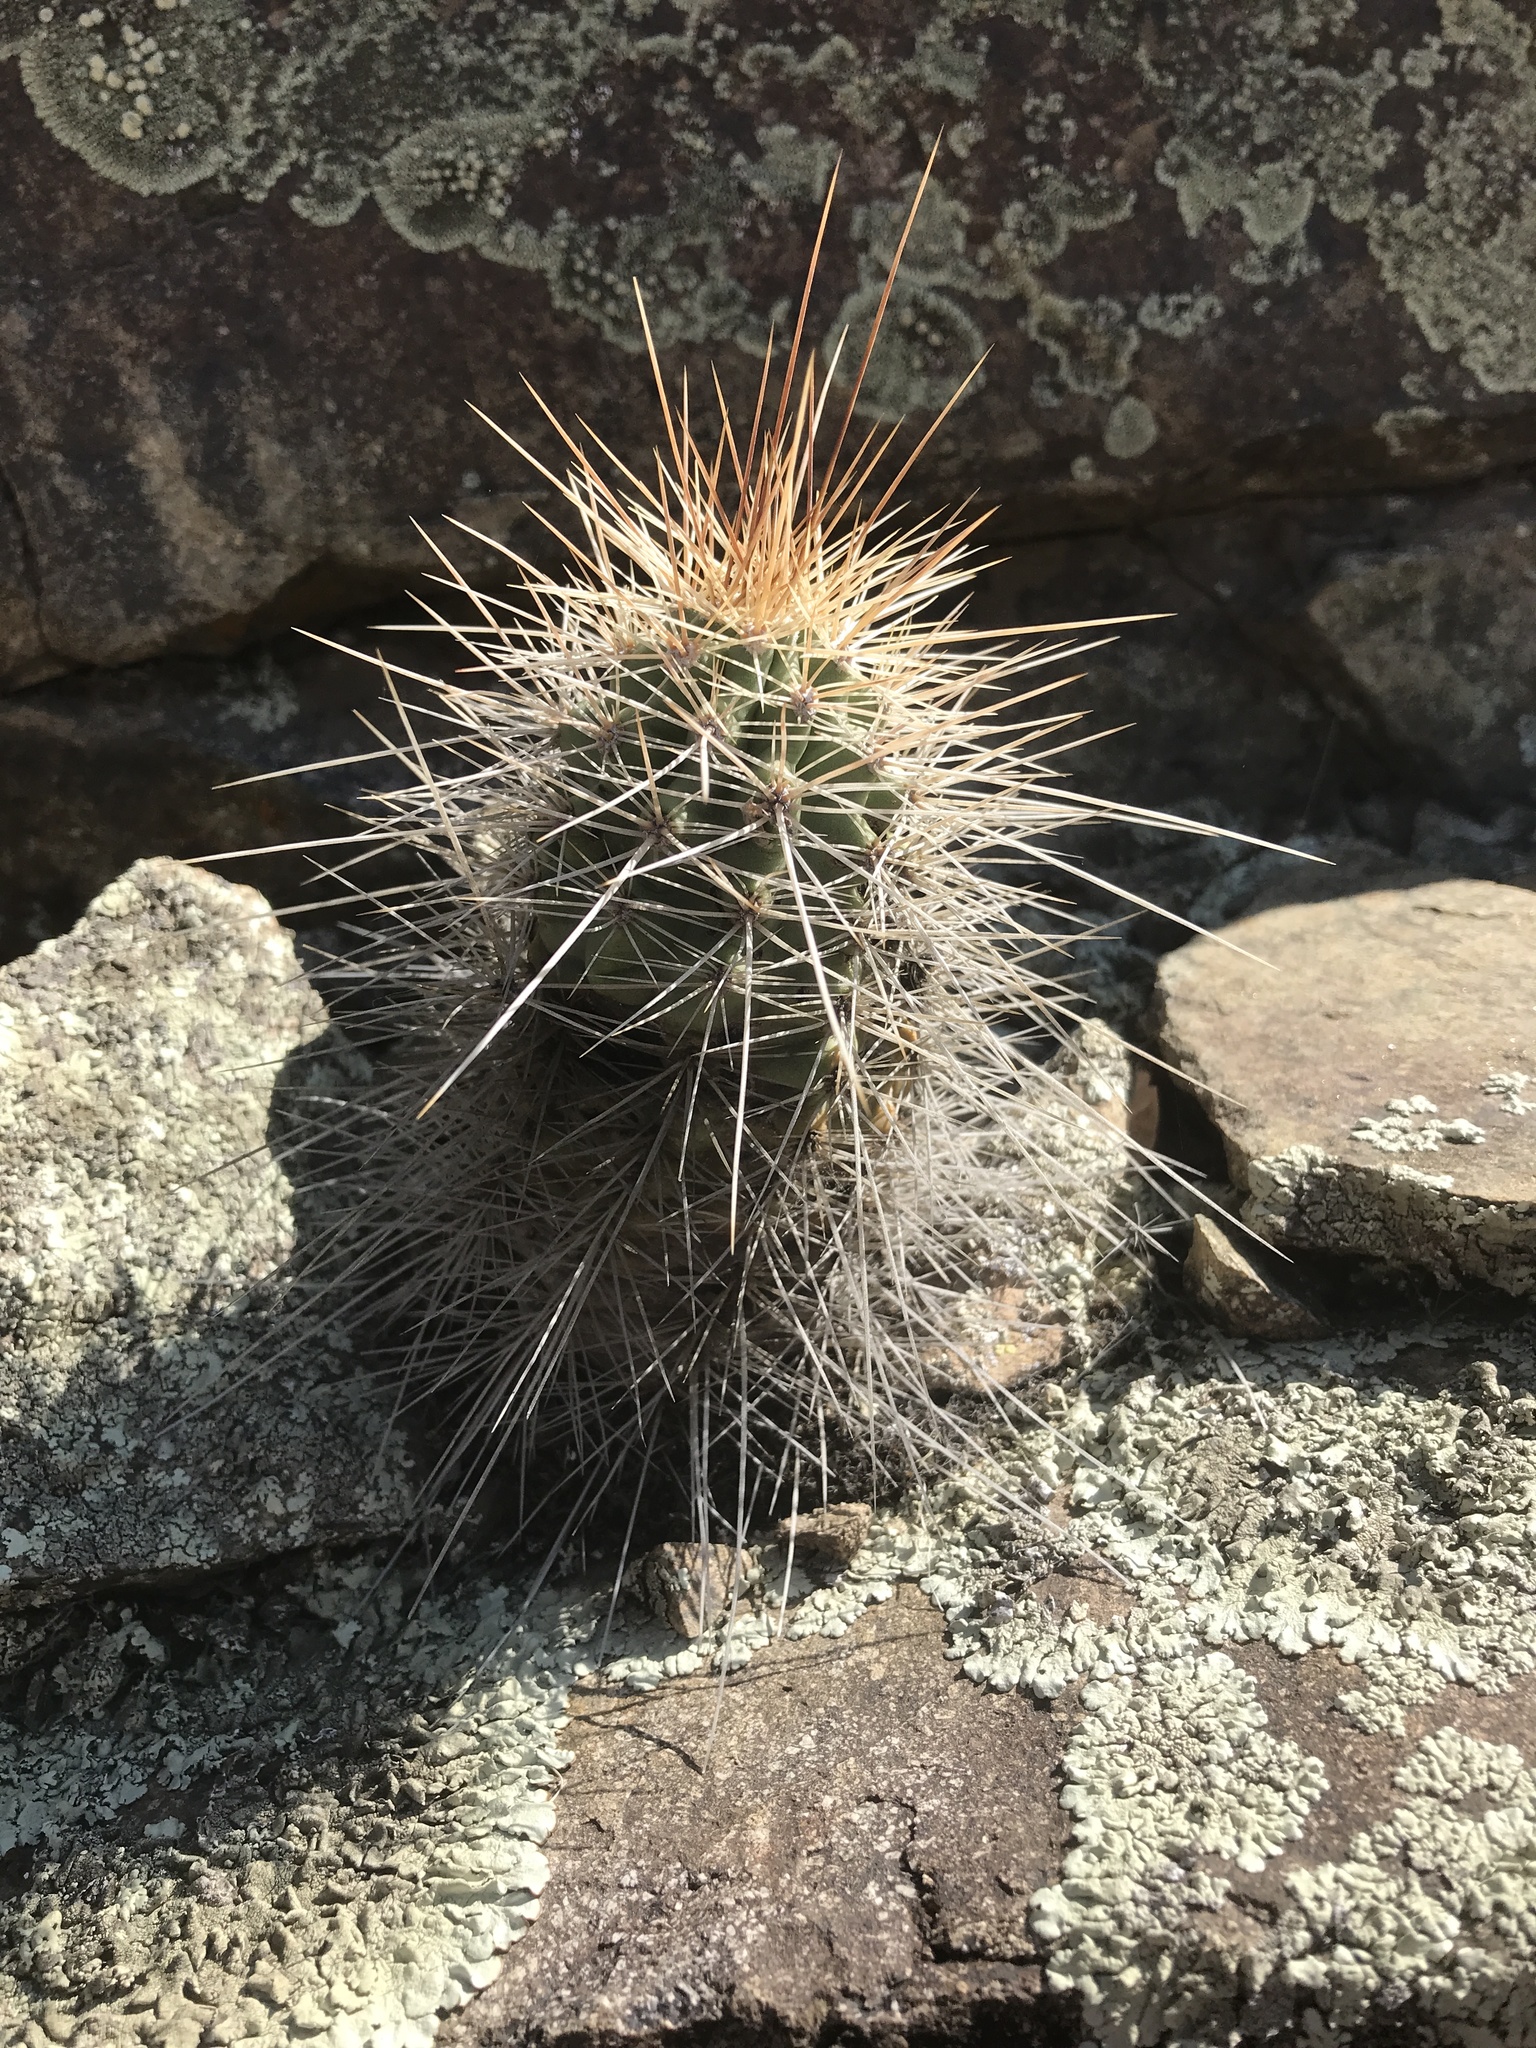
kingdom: Plantae
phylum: Tracheophyta
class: Magnoliopsida
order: Caryophyllales
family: Cactaceae
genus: Echinocereus
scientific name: Echinocereus coccineus
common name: Scarlet hedgehog cactus
